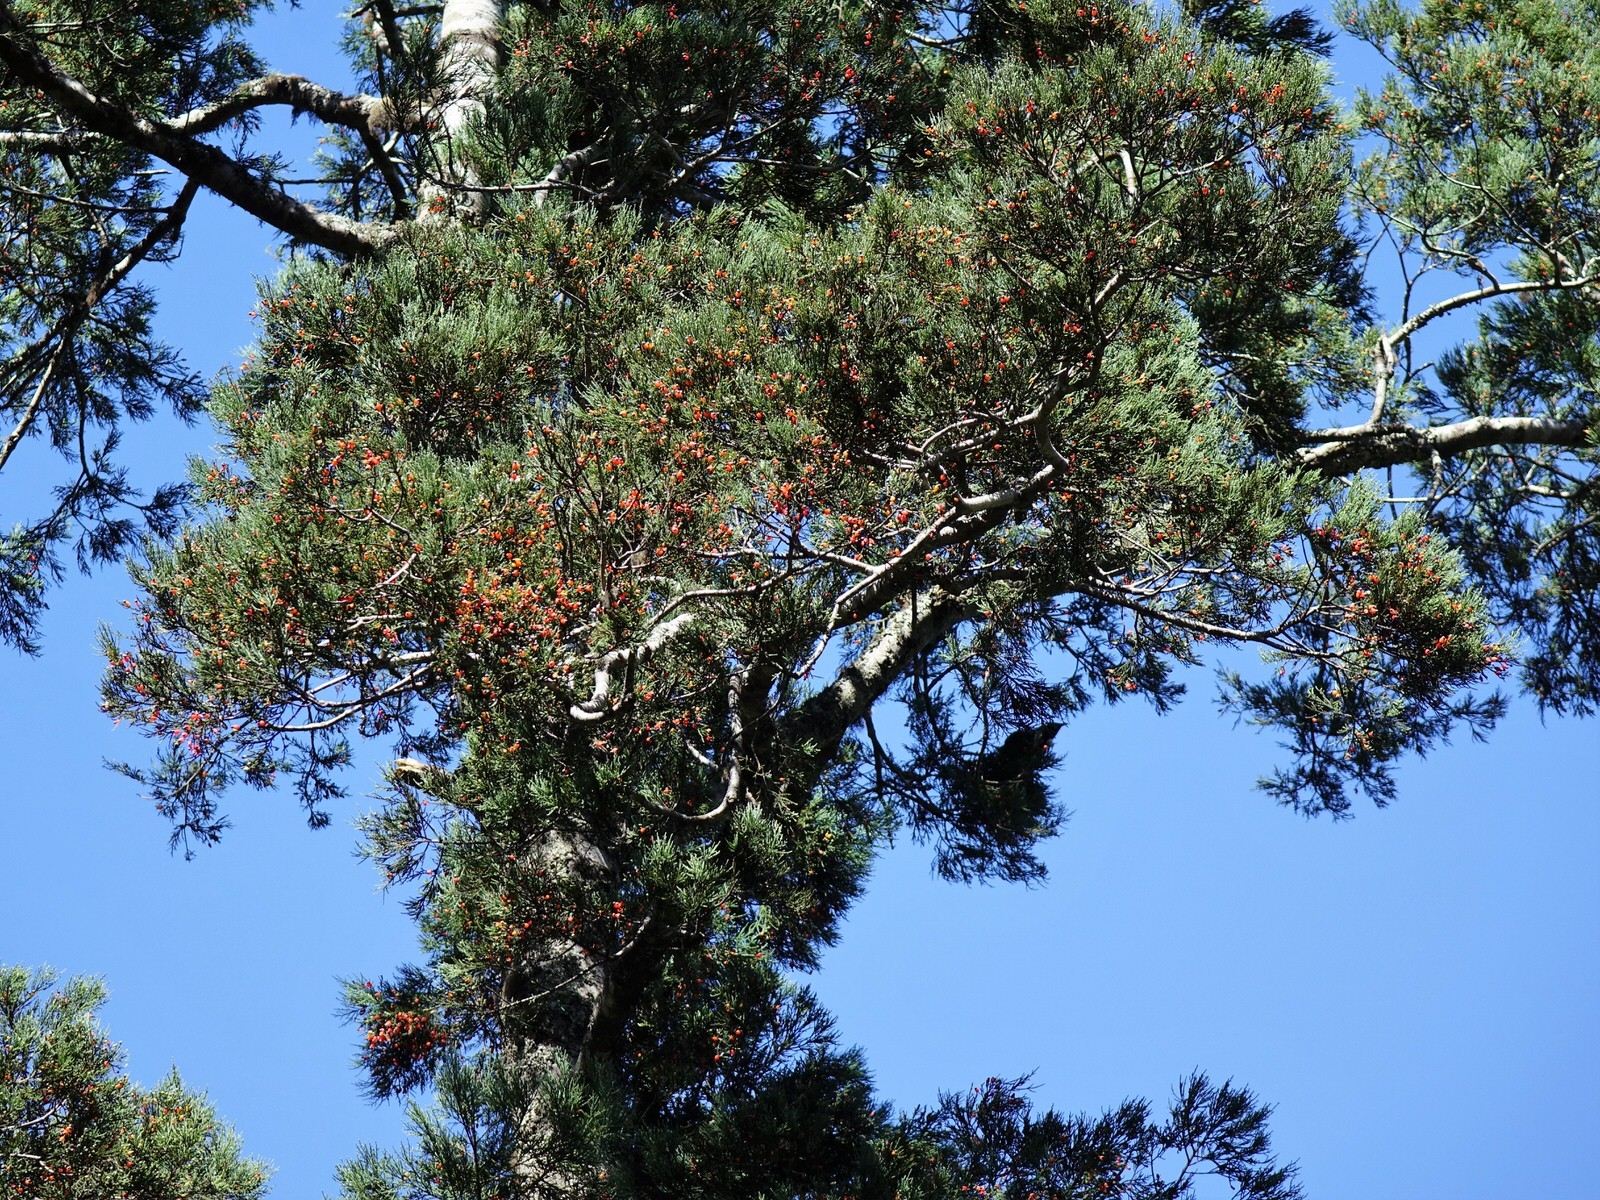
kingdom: Plantae
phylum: Tracheophyta
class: Pinopsida
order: Pinales
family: Podocarpaceae
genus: Dacrycarpus
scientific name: Dacrycarpus dacrydioides
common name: White pine
